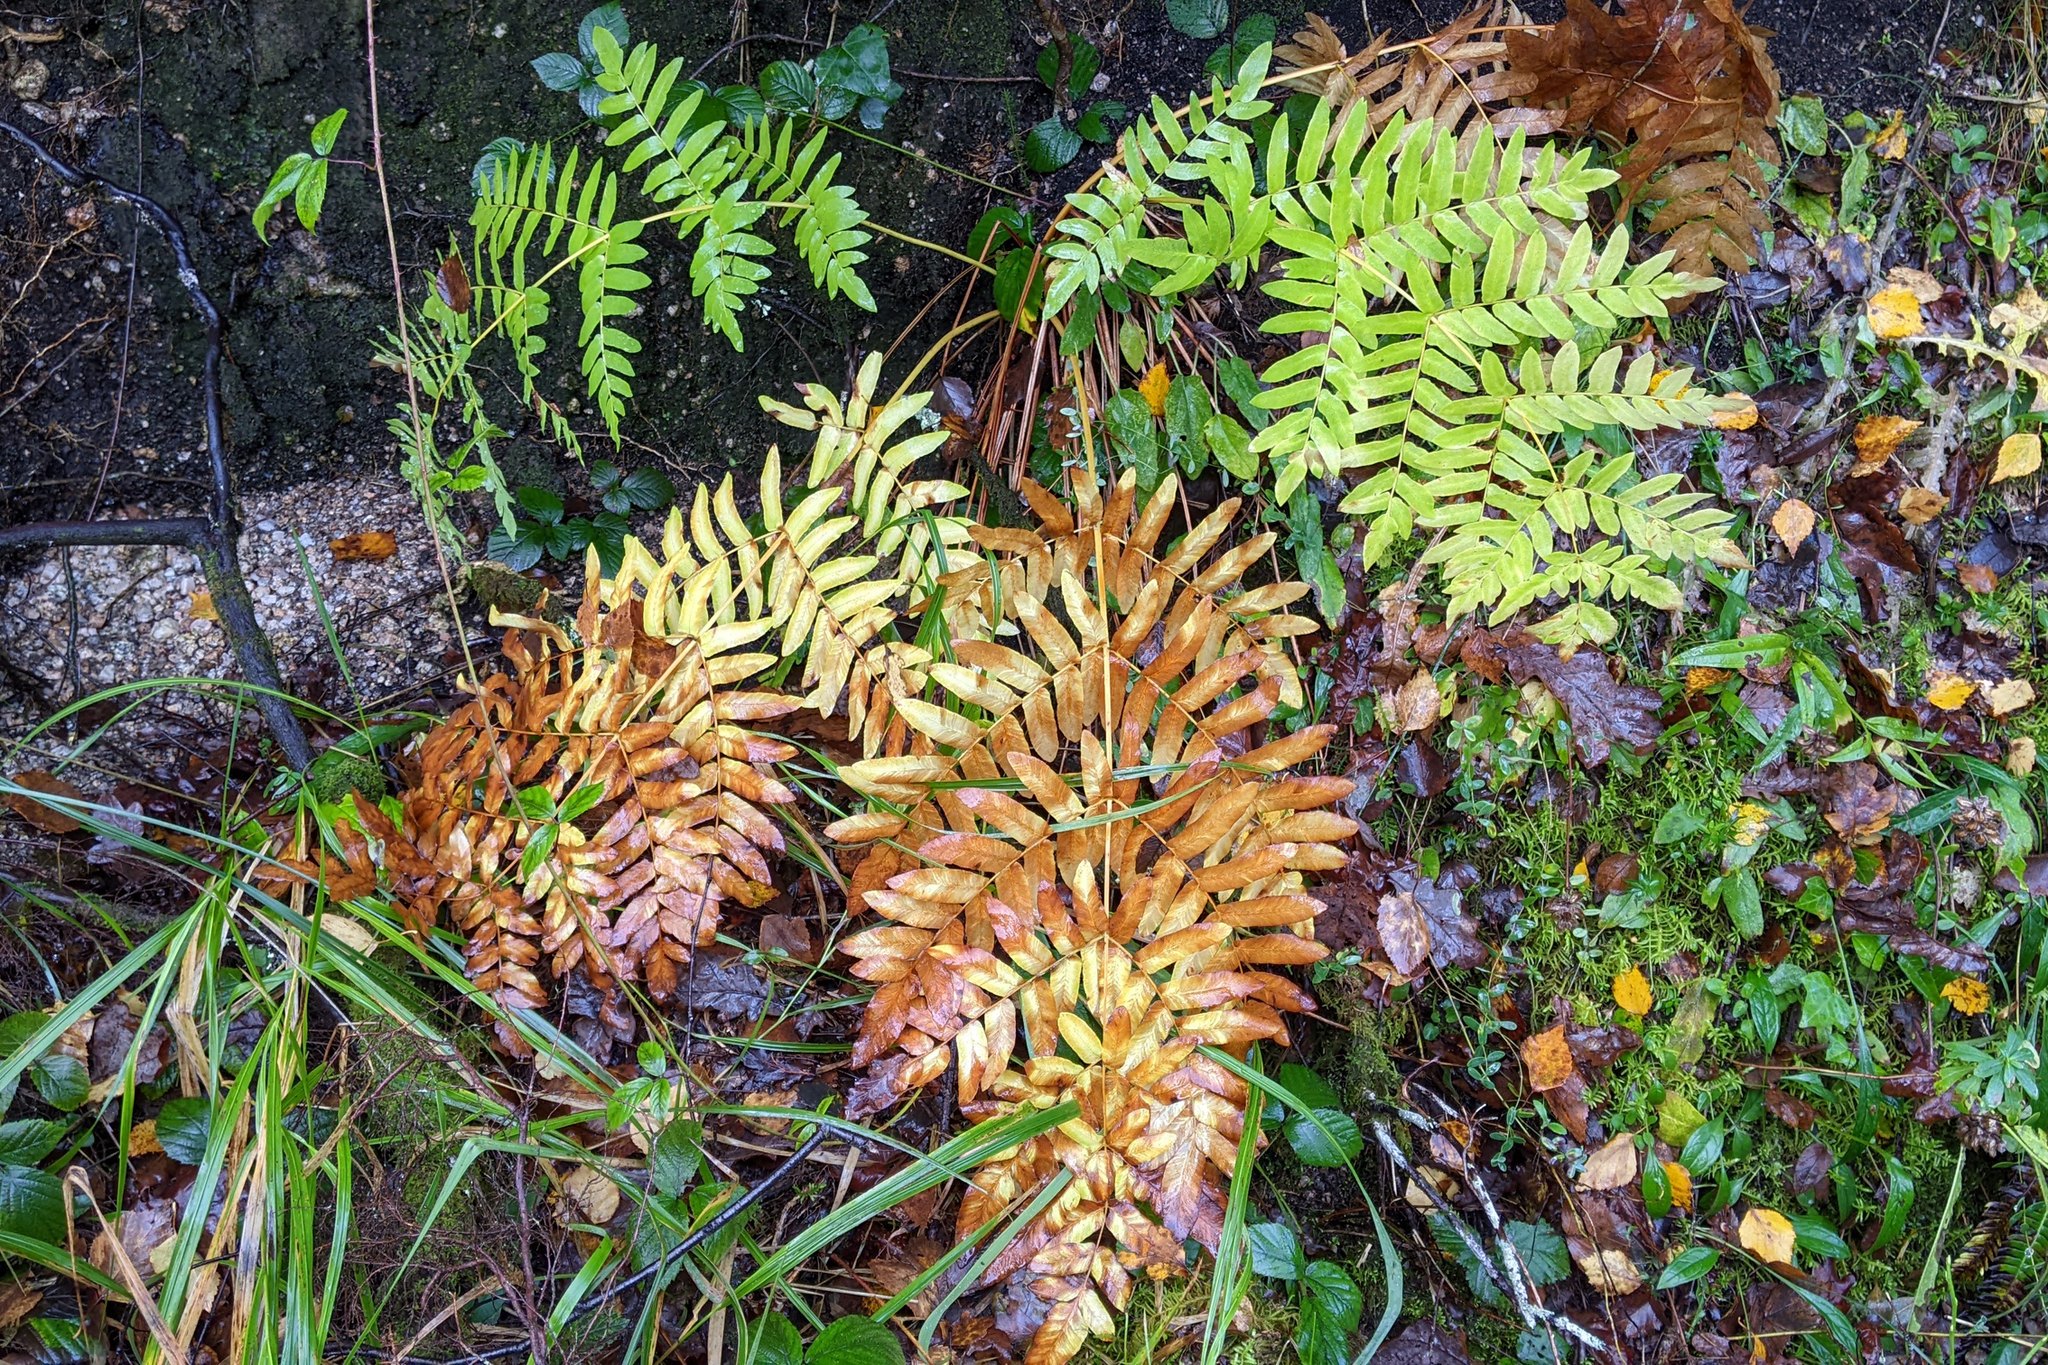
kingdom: Plantae
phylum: Tracheophyta
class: Polypodiopsida
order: Osmundales
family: Osmundaceae
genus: Osmunda
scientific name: Osmunda regalis
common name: Royal fern
